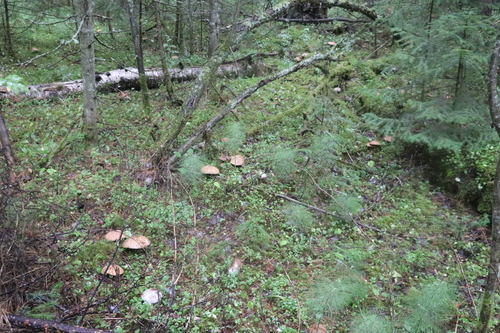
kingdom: Fungi
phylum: Basidiomycota
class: Agaricomycetes
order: Boletales
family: Suillaceae
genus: Suillus
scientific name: Suillus spraguei
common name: Painted suillus
